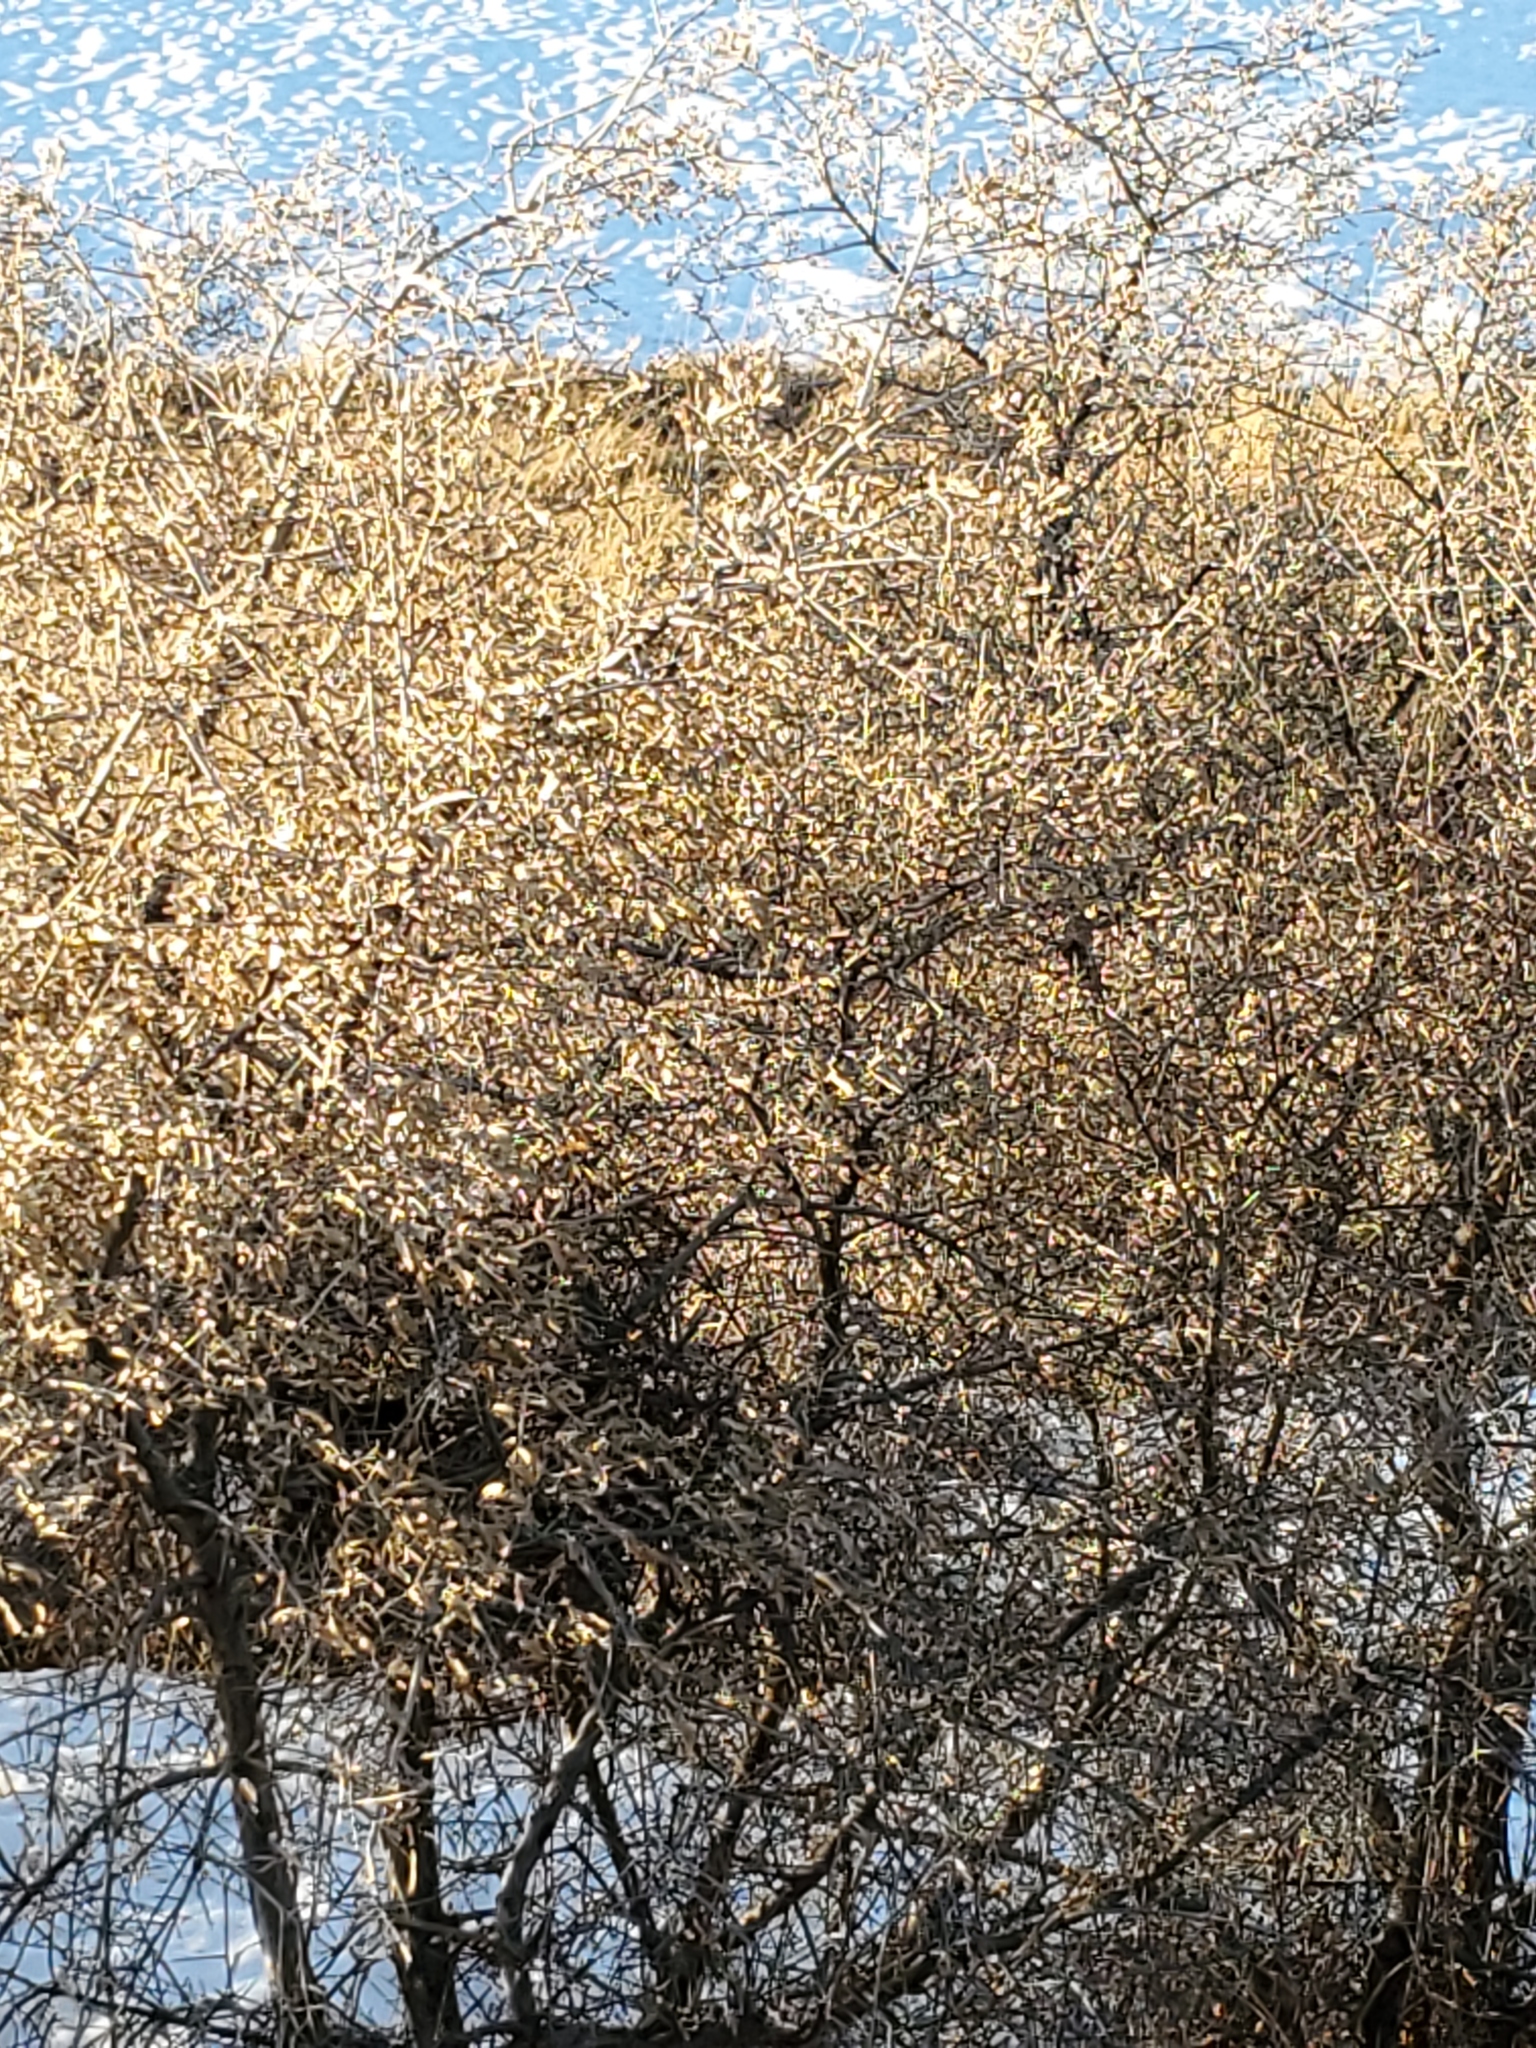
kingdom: Plantae
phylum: Tracheophyta
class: Magnoliopsida
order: Rosales
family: Elaeagnaceae
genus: Shepherdia
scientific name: Shepherdia argentea
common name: Silver buffaloberry
